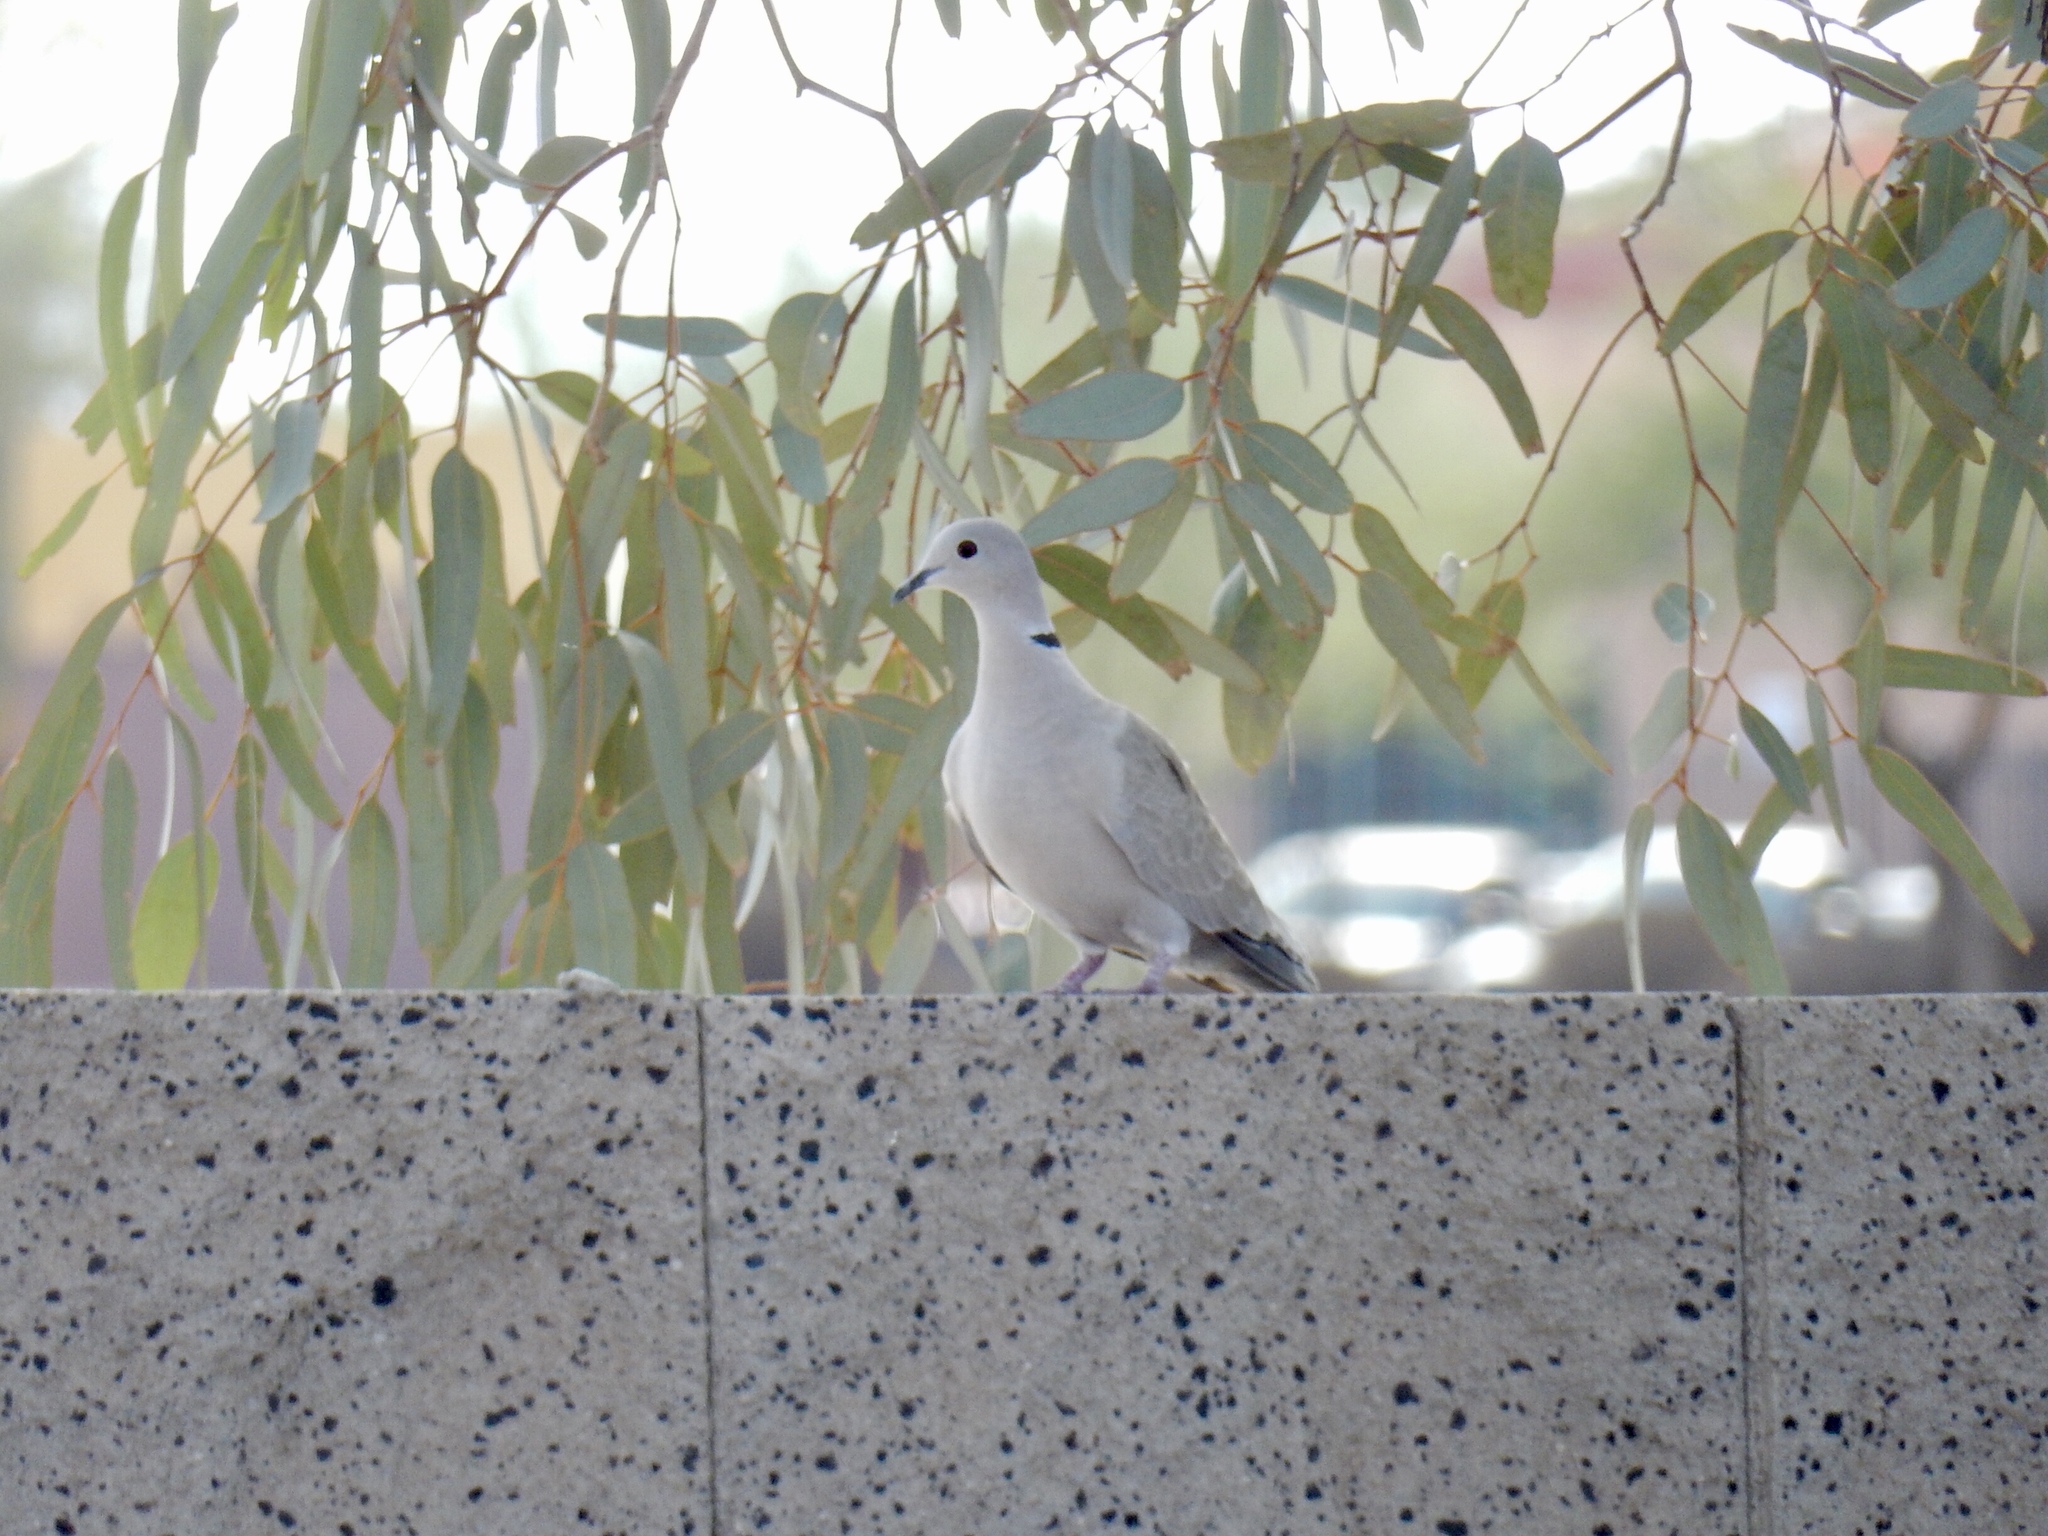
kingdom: Animalia
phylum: Chordata
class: Aves
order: Columbiformes
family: Columbidae
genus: Streptopelia
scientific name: Streptopelia decaocto
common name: Eurasian collared dove
